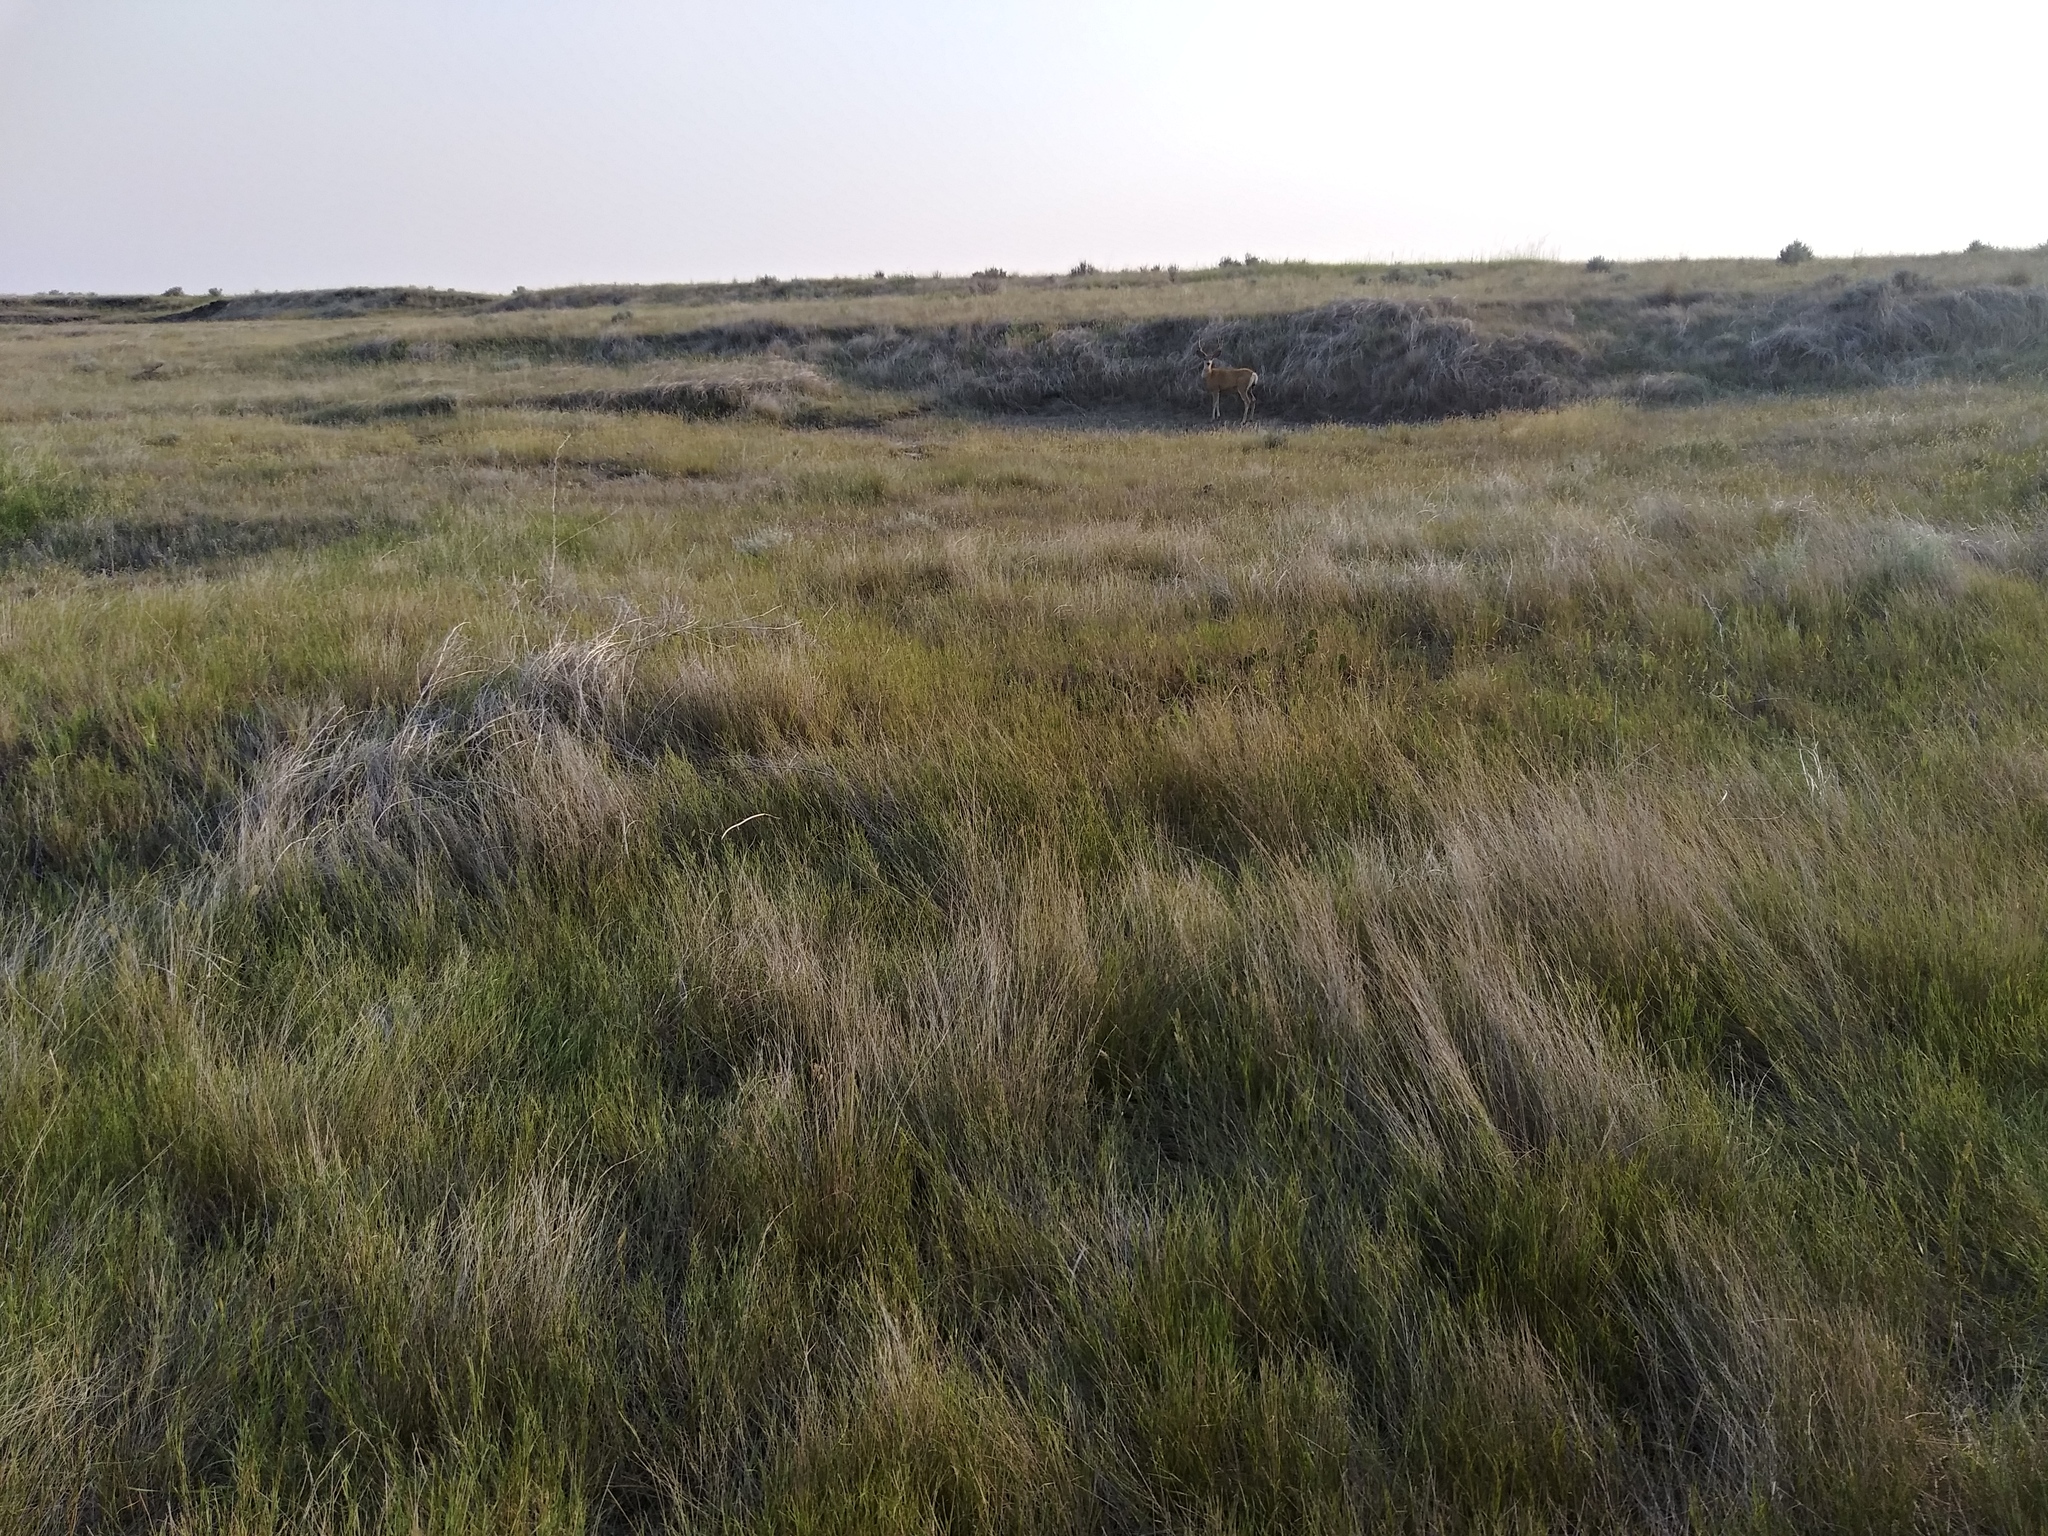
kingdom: Animalia
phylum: Chordata
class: Mammalia
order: Artiodactyla
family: Cervidae
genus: Odocoileus
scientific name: Odocoileus hemionus
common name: Mule deer
